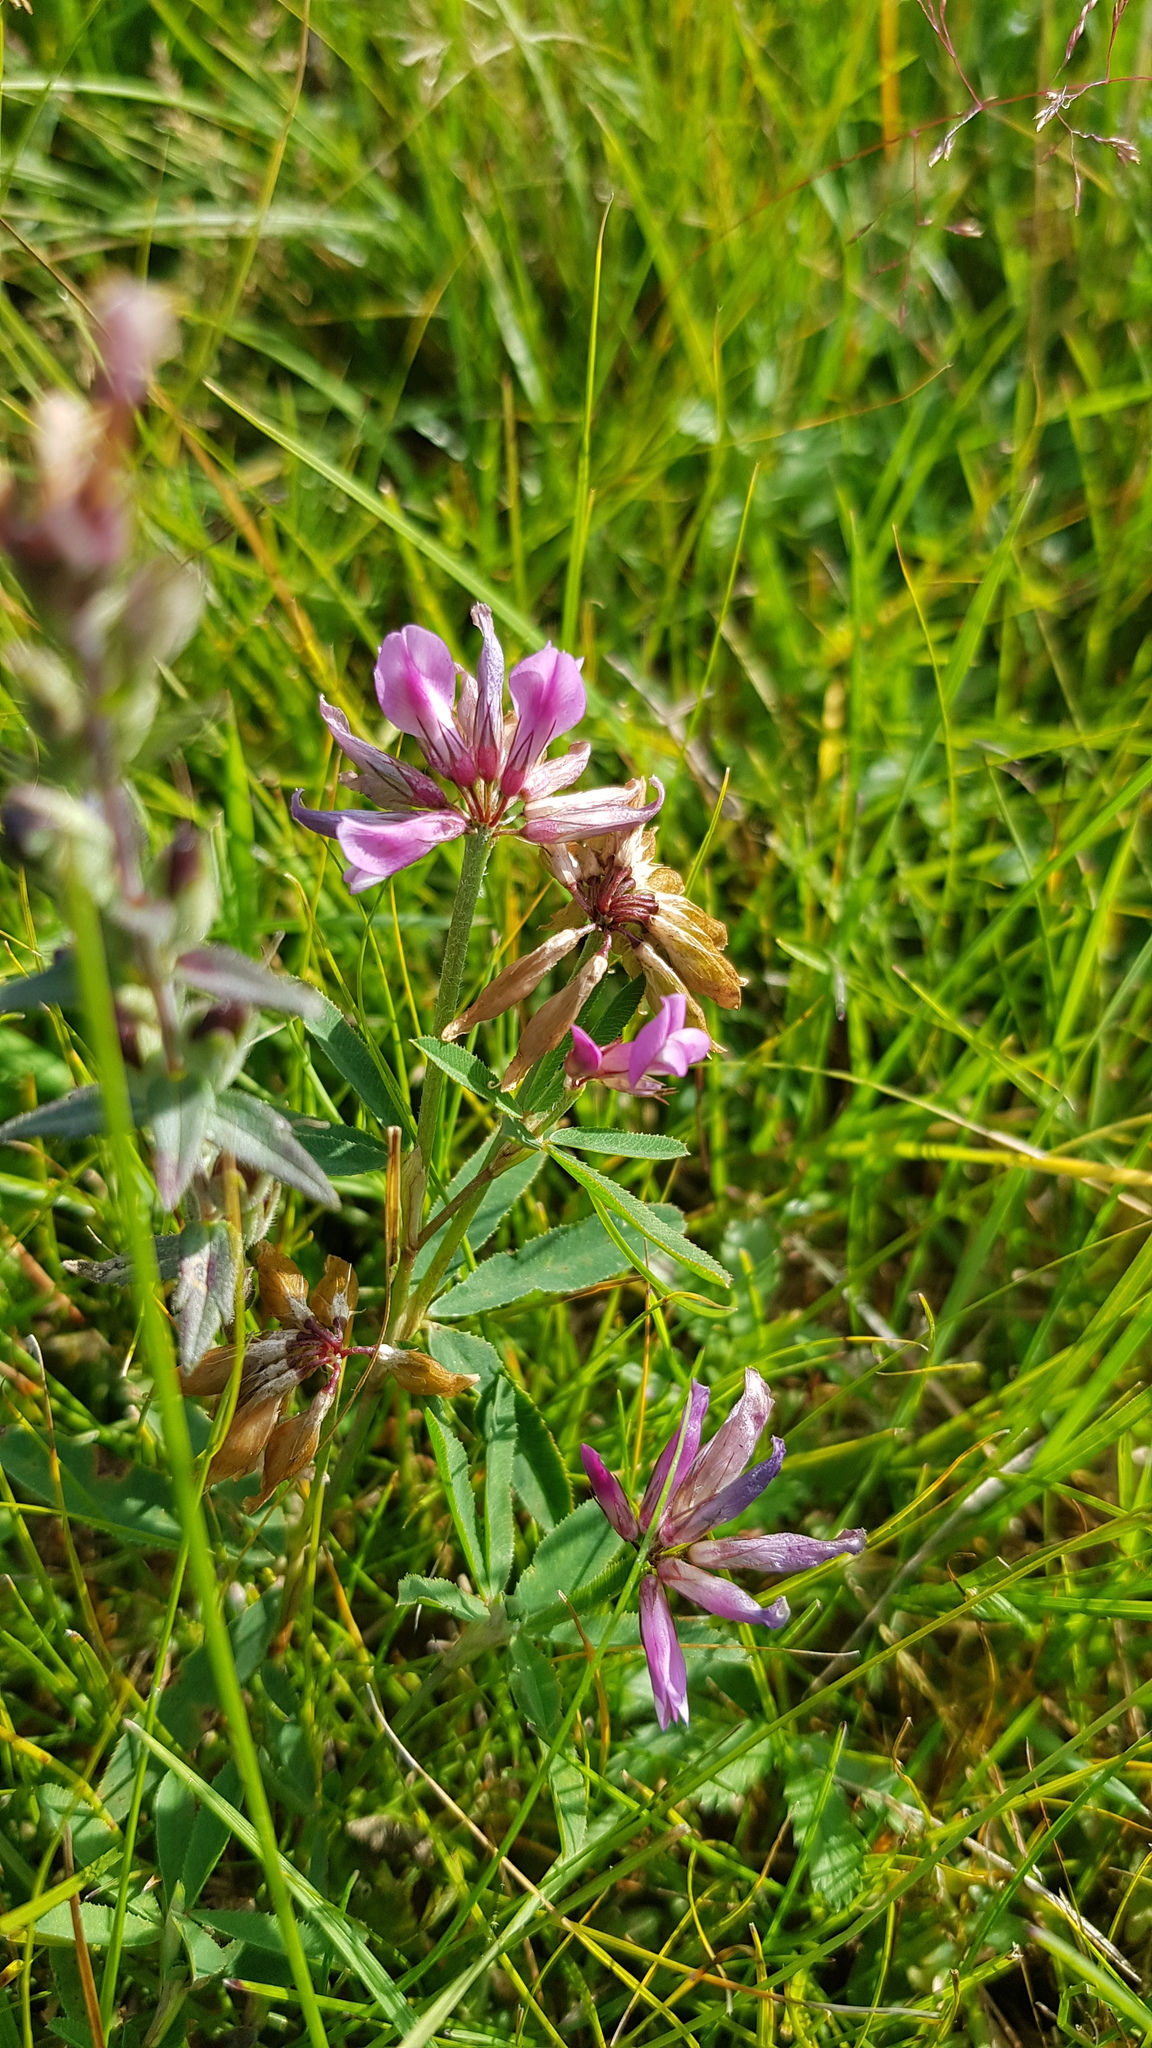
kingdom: Plantae
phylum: Tracheophyta
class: Magnoliopsida
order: Fabales
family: Fabaceae
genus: Trifolium
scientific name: Trifolium lupinaster
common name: Lupine clover
